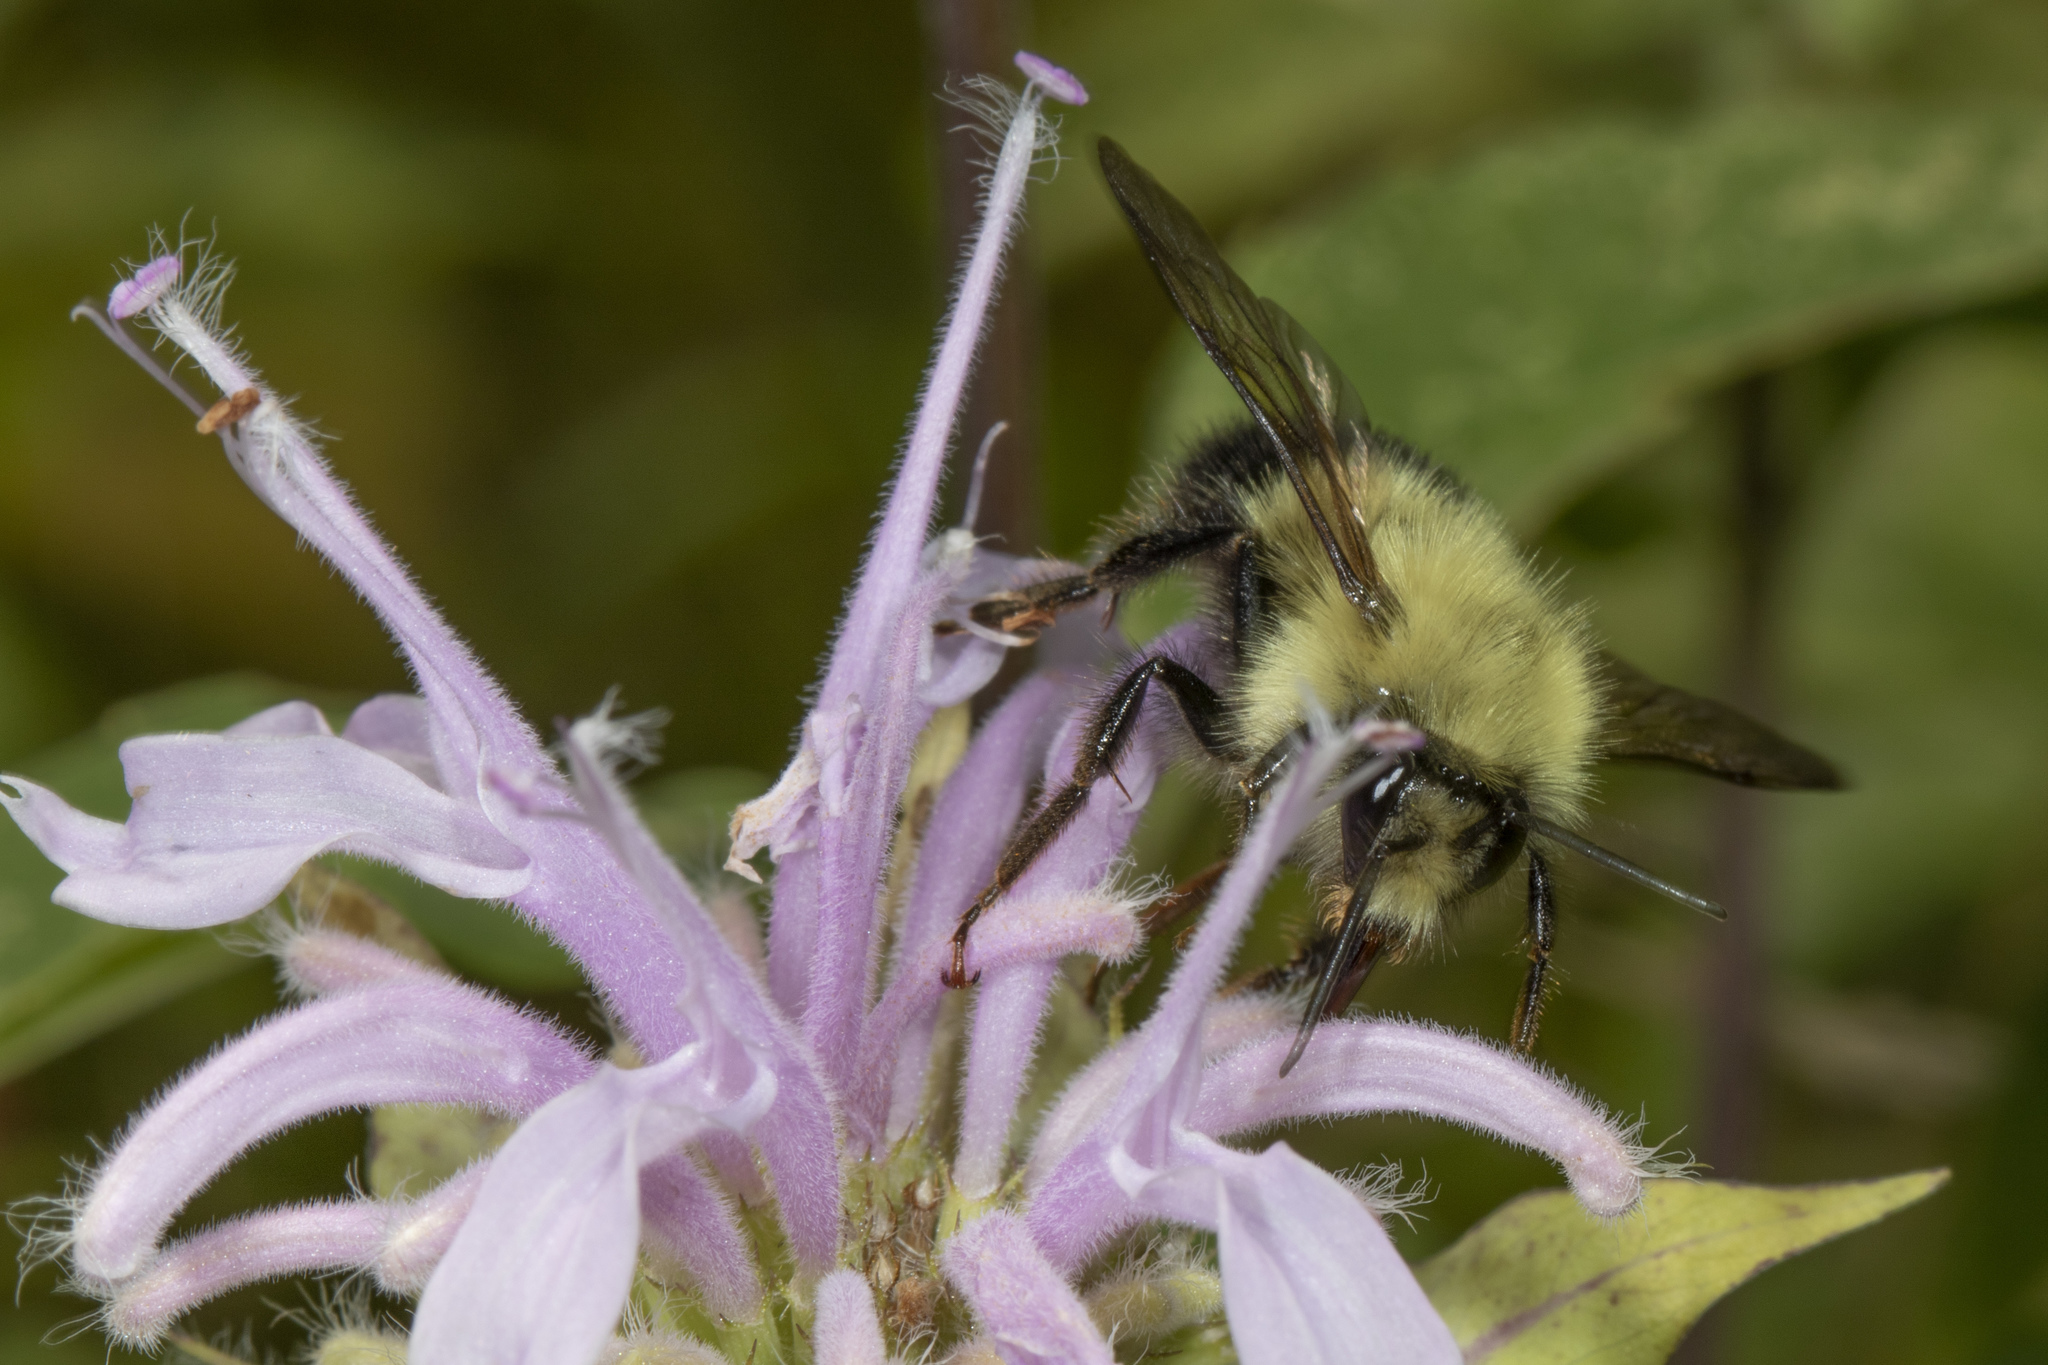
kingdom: Animalia
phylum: Arthropoda
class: Insecta
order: Hymenoptera
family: Apidae
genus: Pyrobombus
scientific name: Pyrobombus
